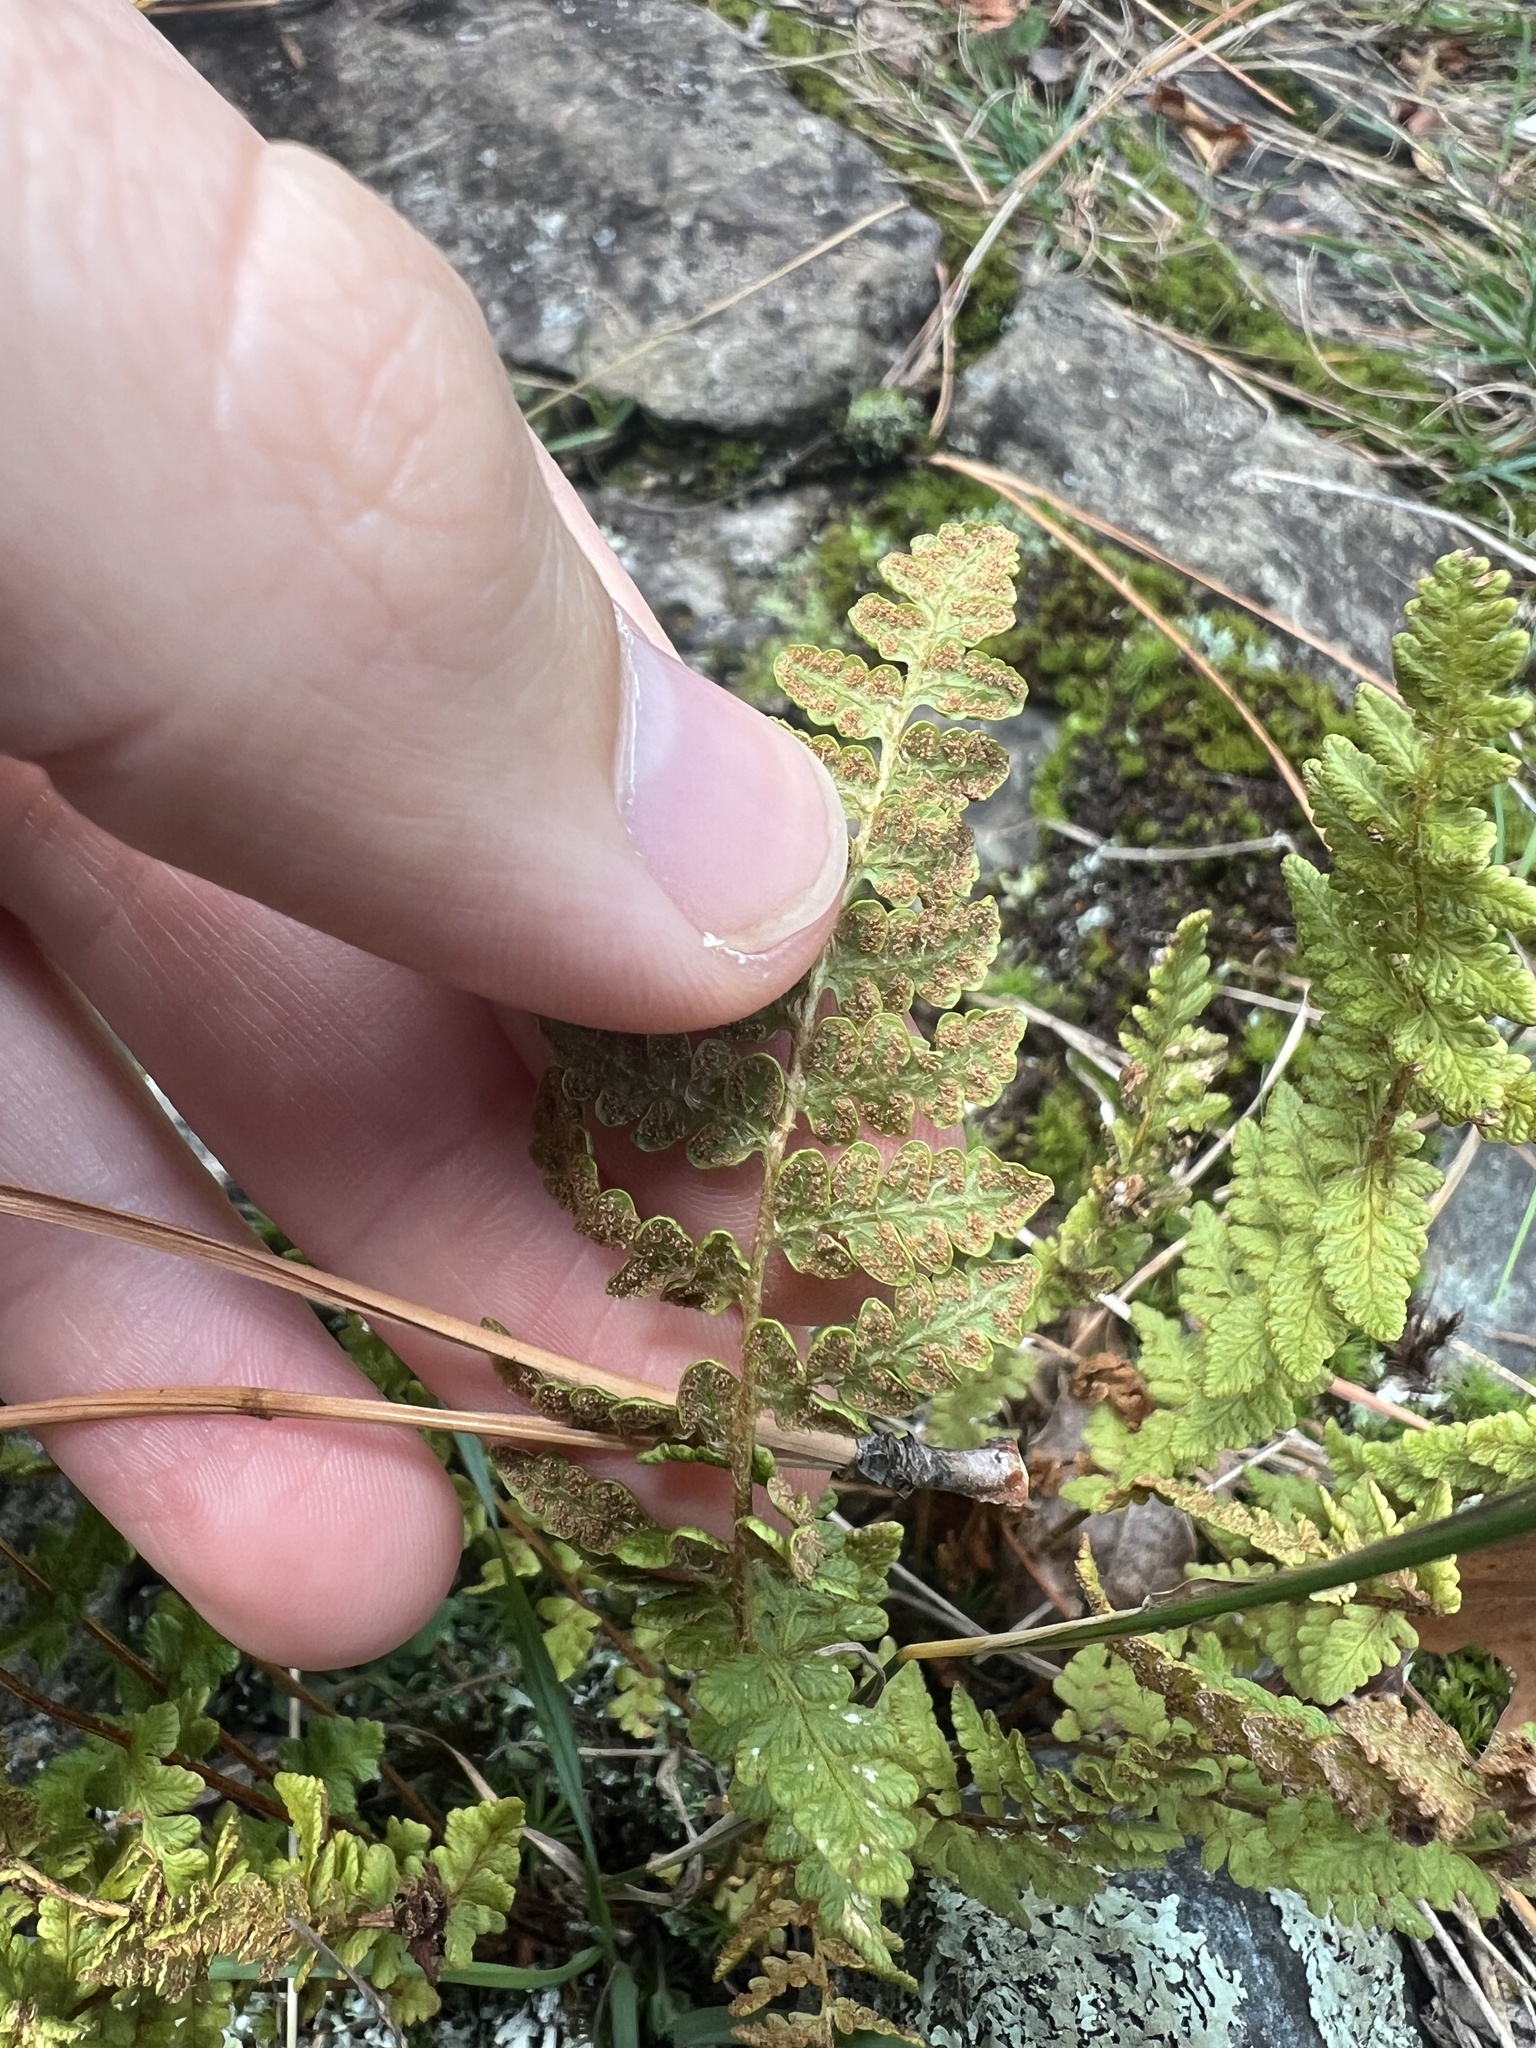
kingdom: Plantae
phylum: Tracheophyta
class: Polypodiopsida
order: Polypodiales
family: Woodsiaceae
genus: Woodsia
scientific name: Woodsia ilvensis
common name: Fragrant woodsia
